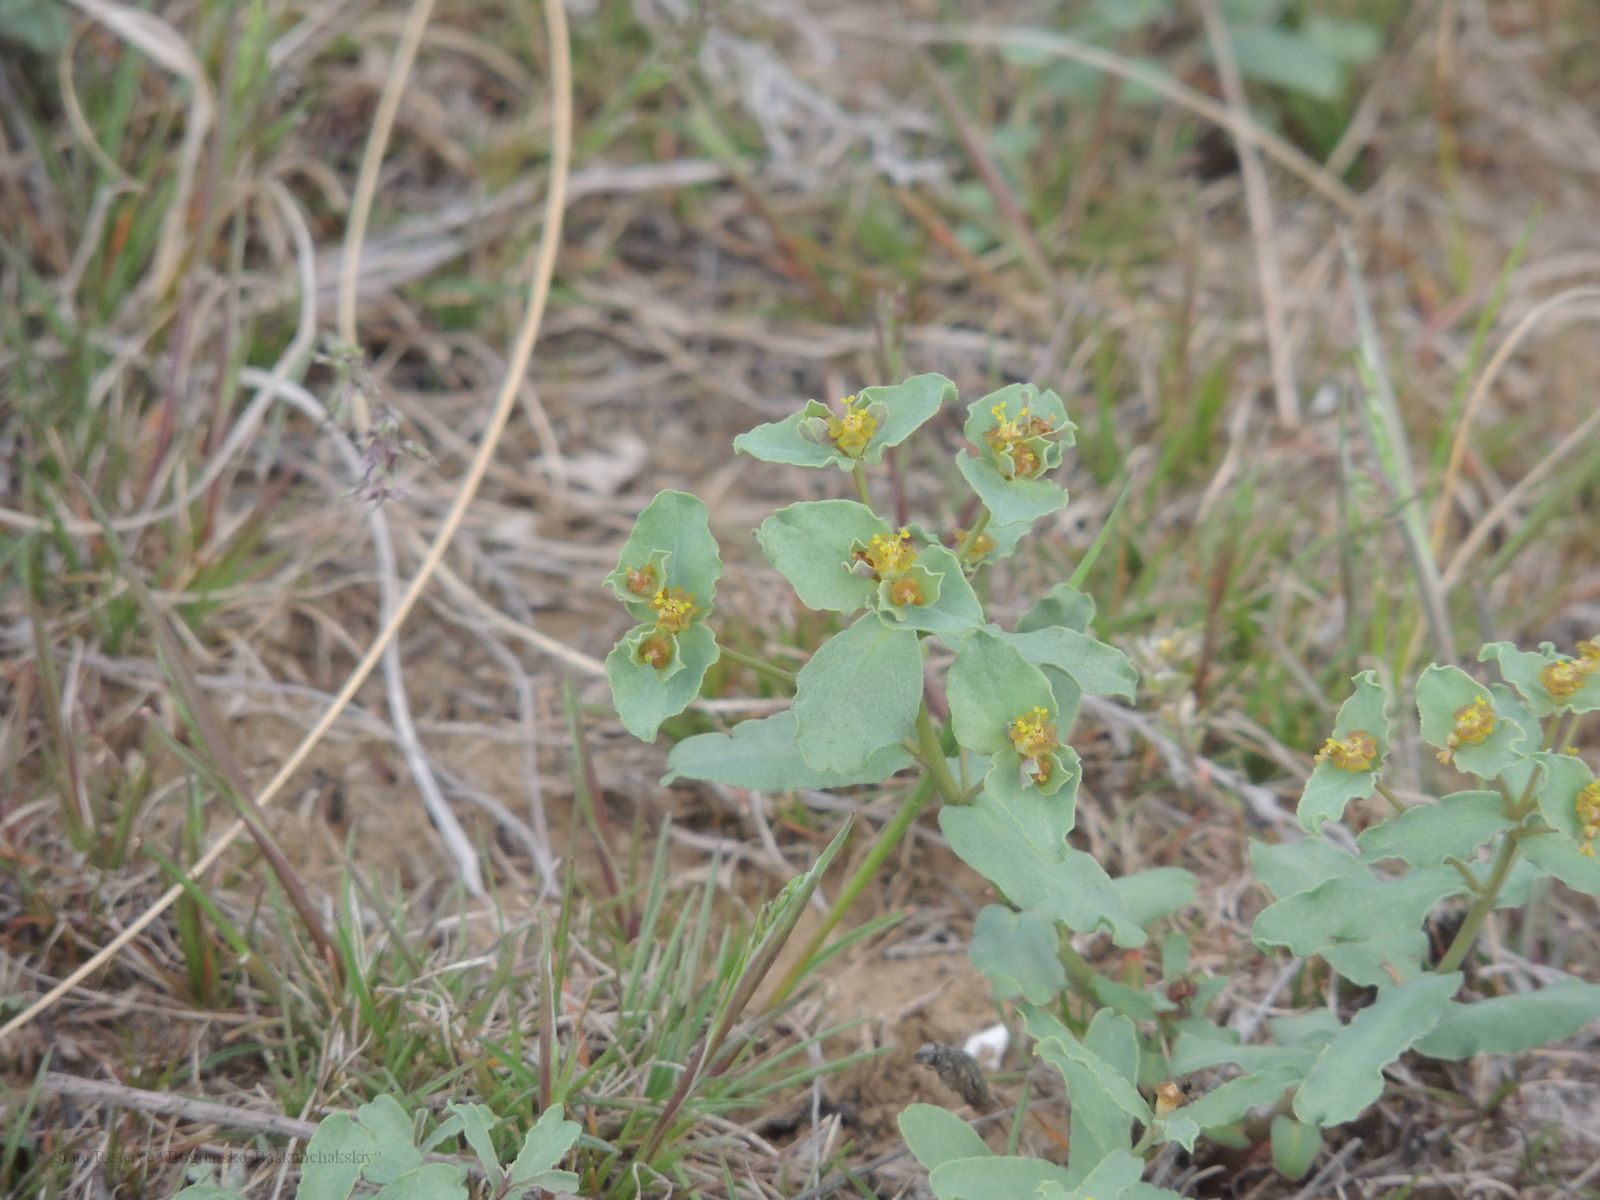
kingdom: Plantae
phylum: Tracheophyta
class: Magnoliopsida
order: Malpighiales
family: Euphorbiaceae
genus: Euphorbia
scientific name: Euphorbia undulata
